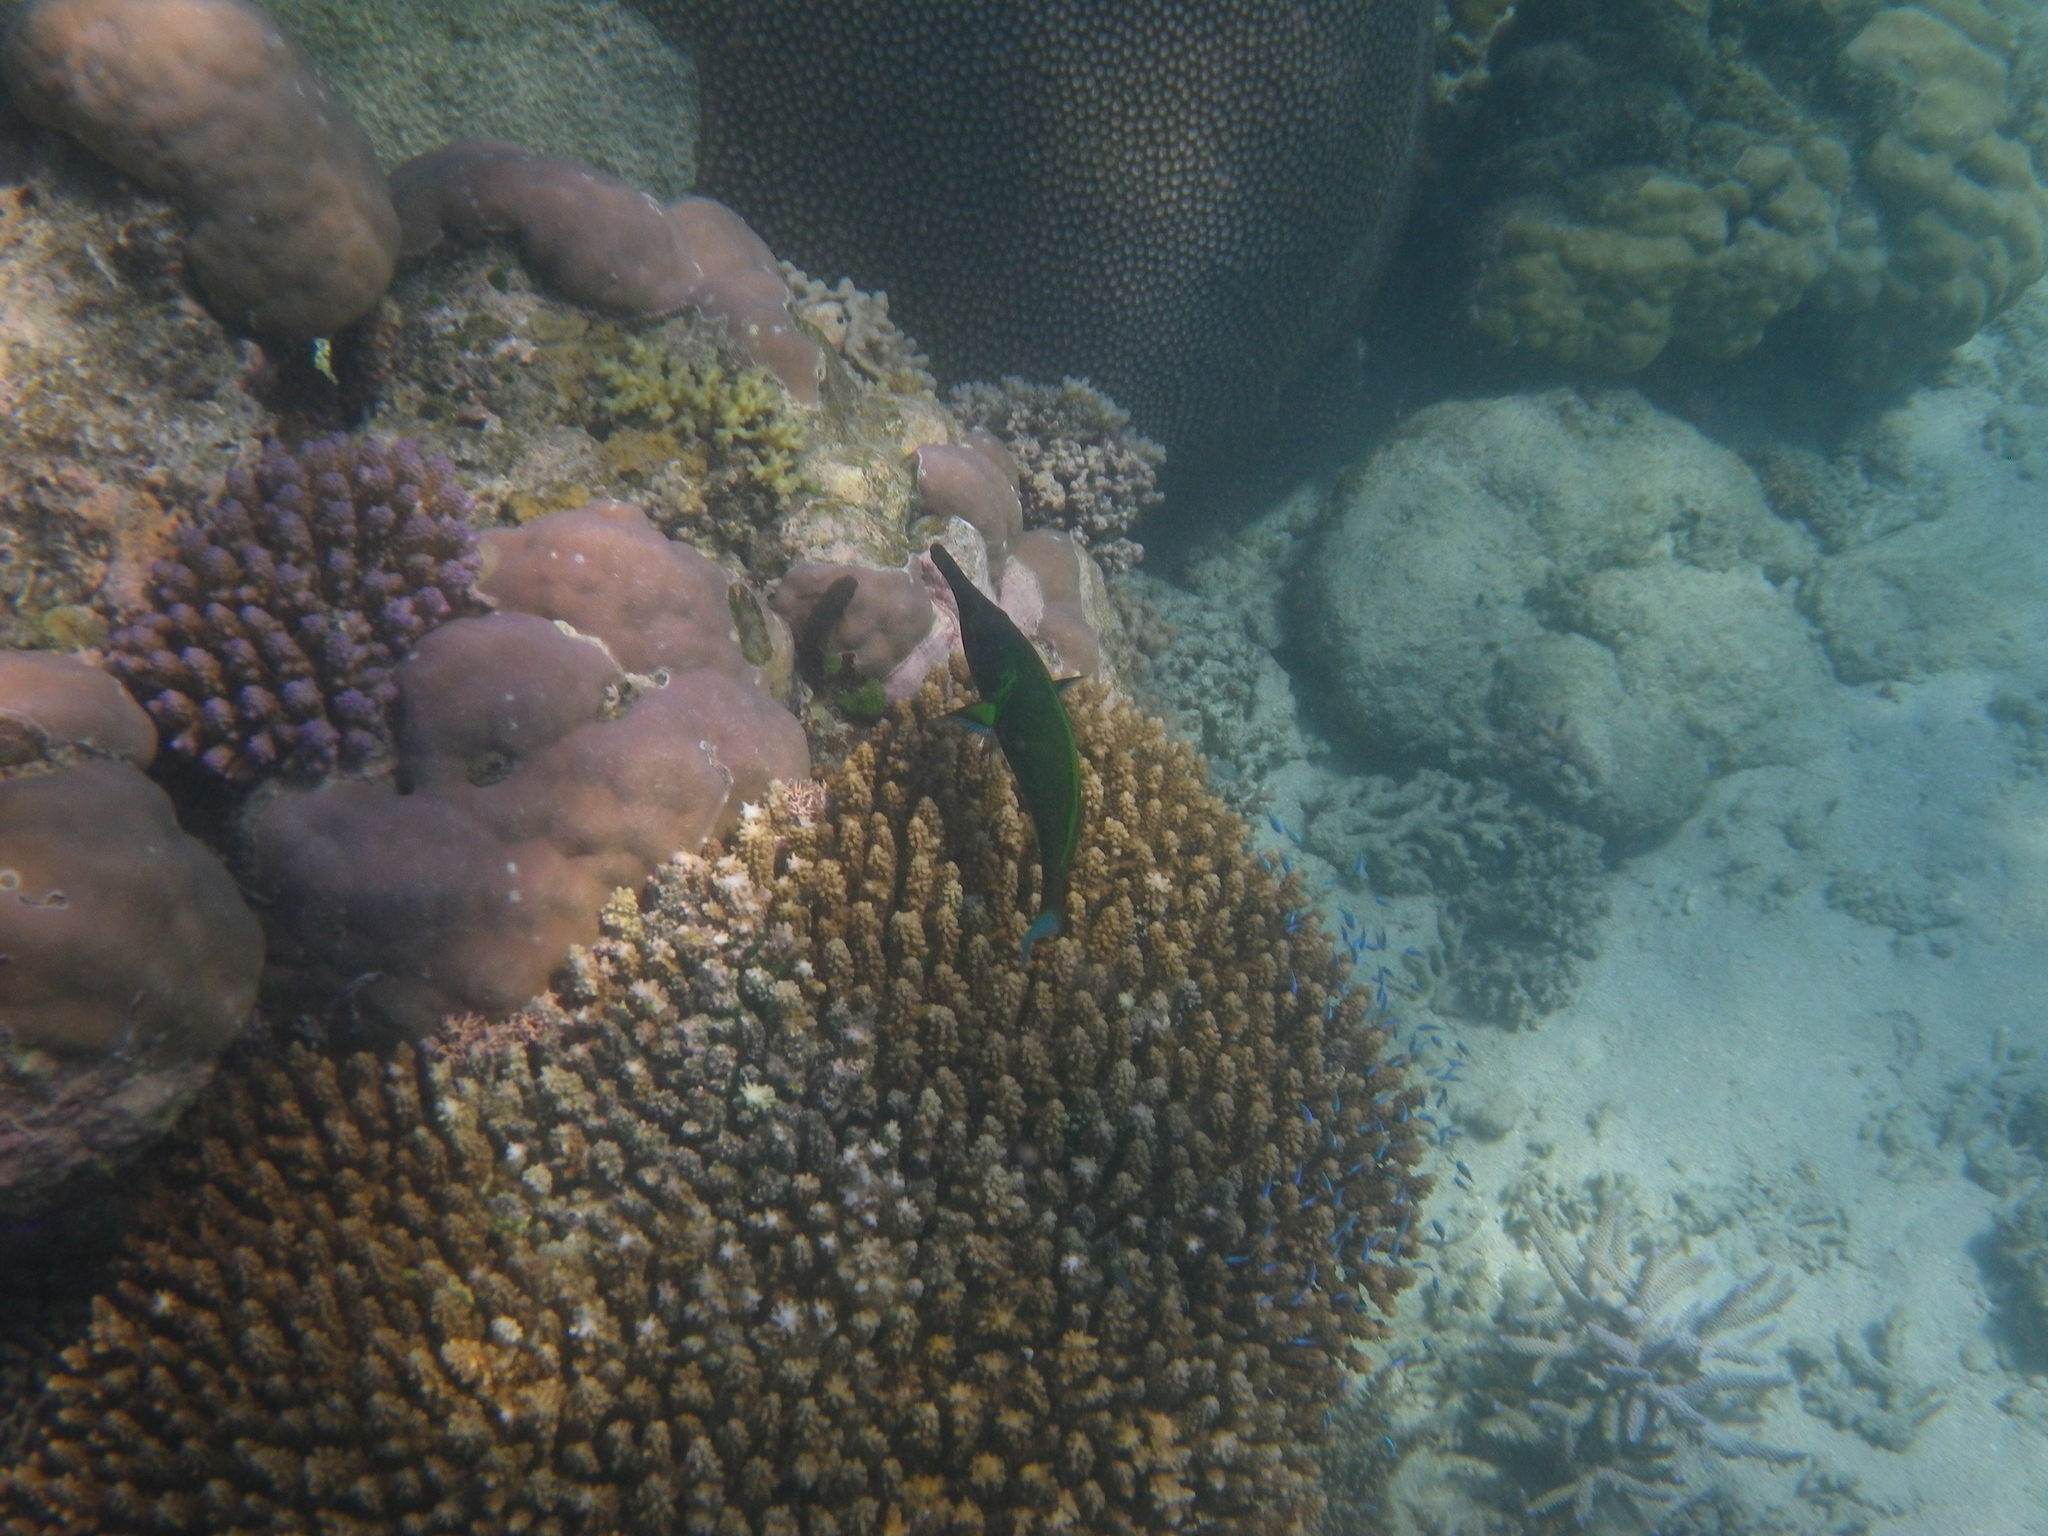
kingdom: Animalia
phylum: Chordata
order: Perciformes
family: Labridae
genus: Gomphosus
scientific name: Gomphosus varius
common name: Bird wrasse
